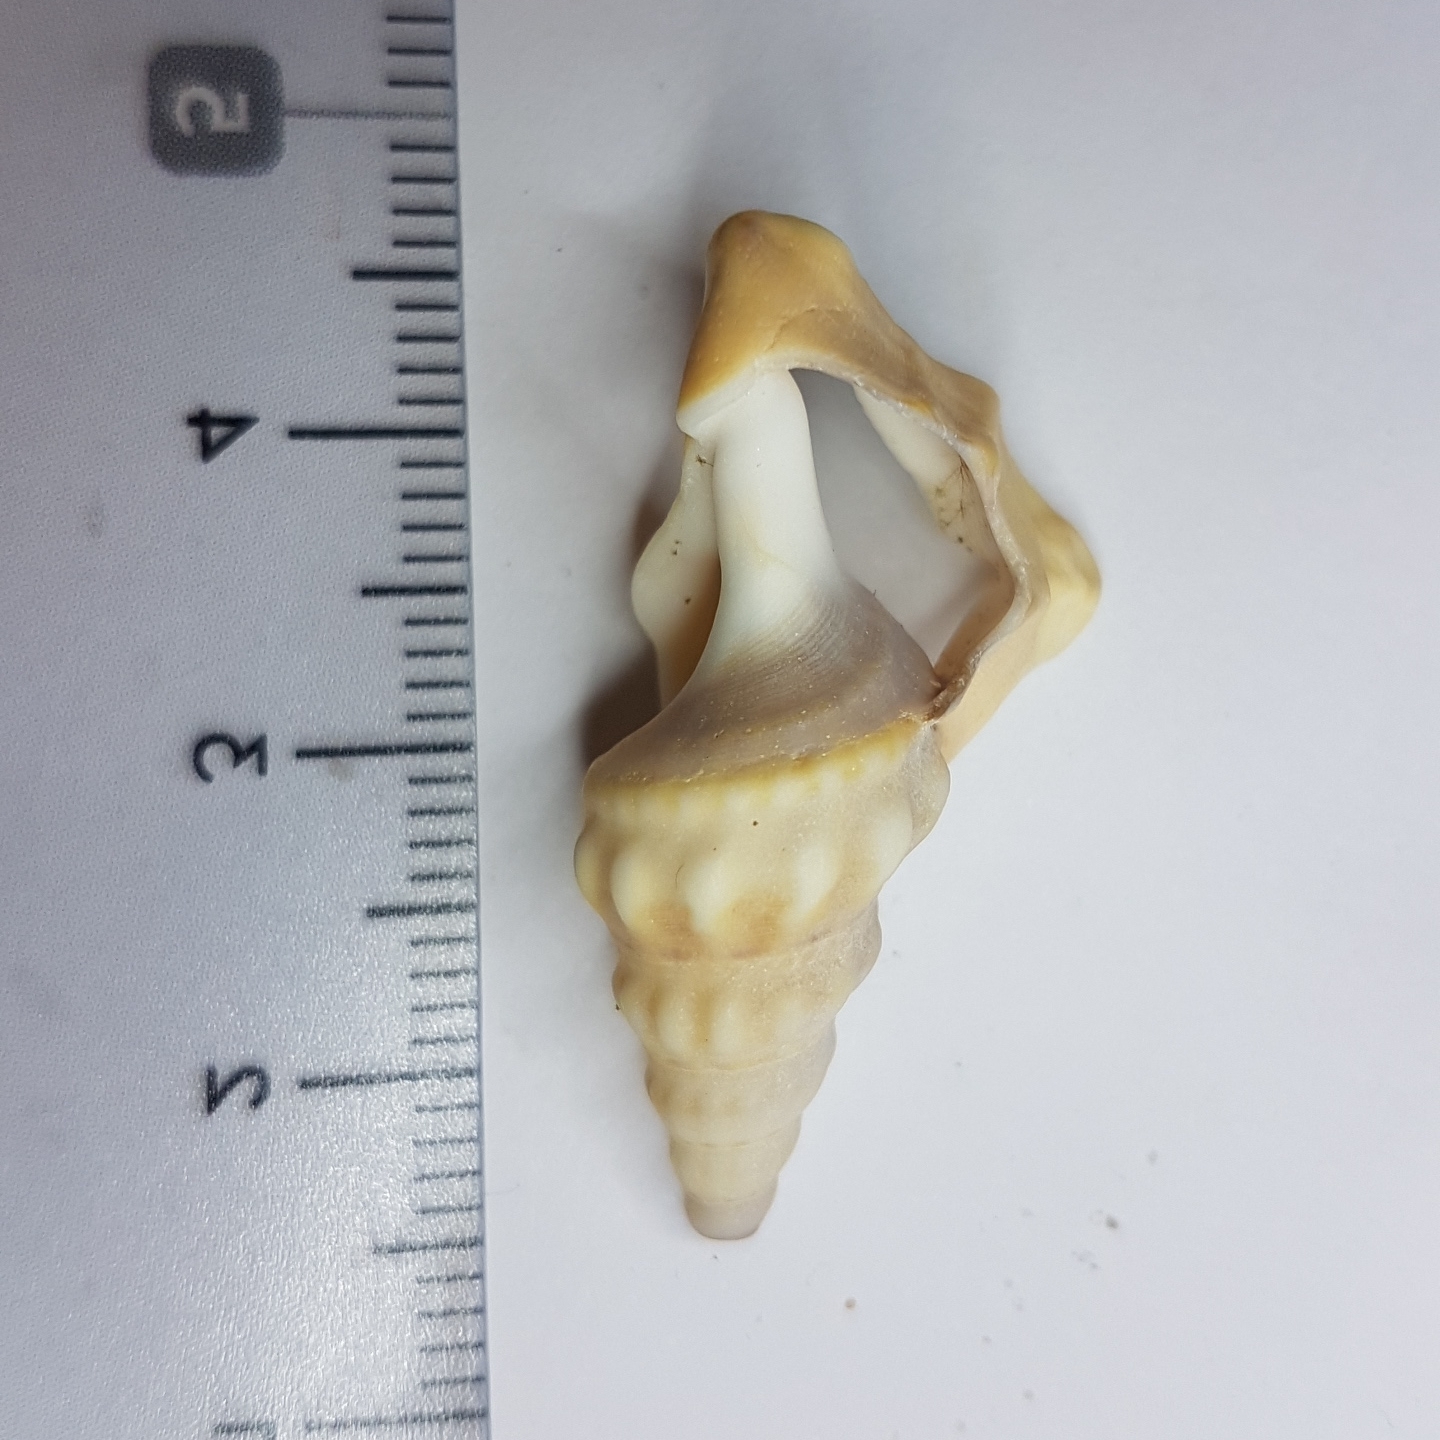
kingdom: Animalia
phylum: Mollusca
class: Gastropoda
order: Littorinimorpha
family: Aporrhaidae
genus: Aporrhais
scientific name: Aporrhais pespelecani
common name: Common pelican’s foot
